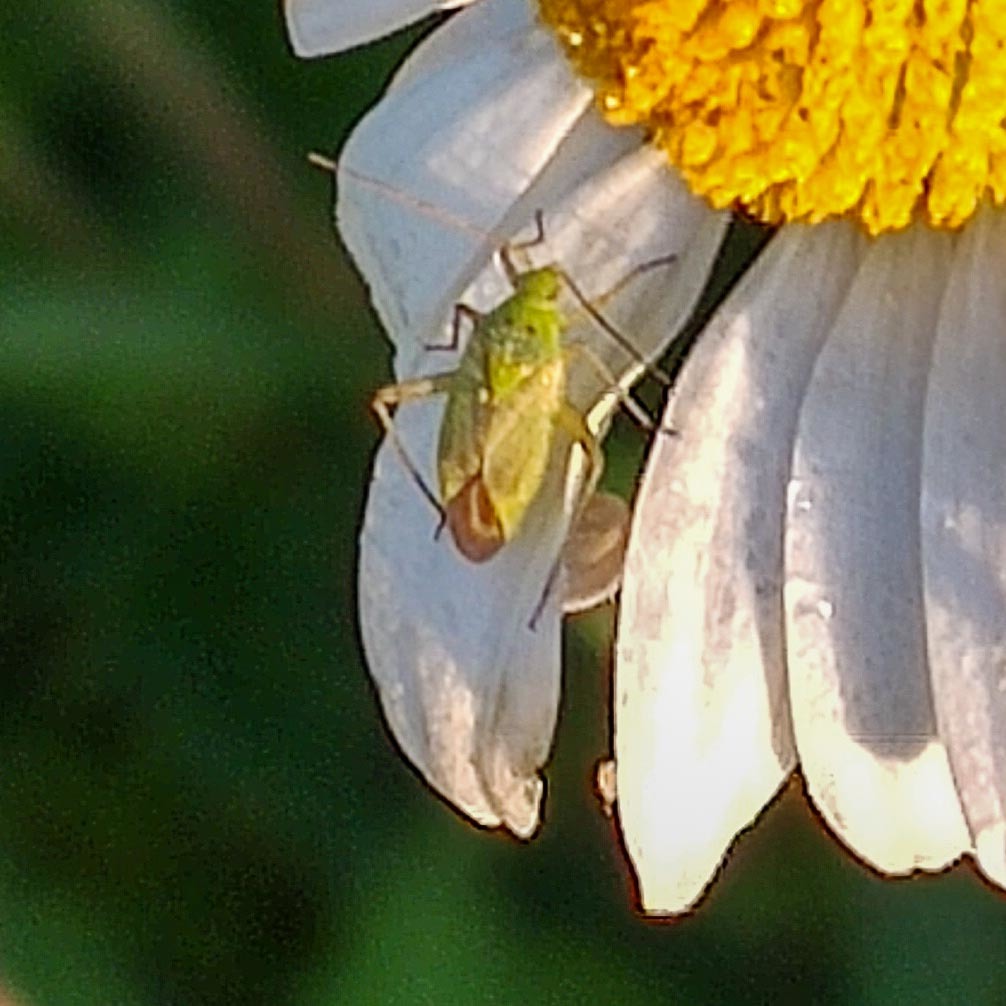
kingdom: Animalia
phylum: Arthropoda
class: Insecta
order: Hemiptera
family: Miridae
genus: Closterotomus
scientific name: Closterotomus norvegicus
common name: Plant bug
